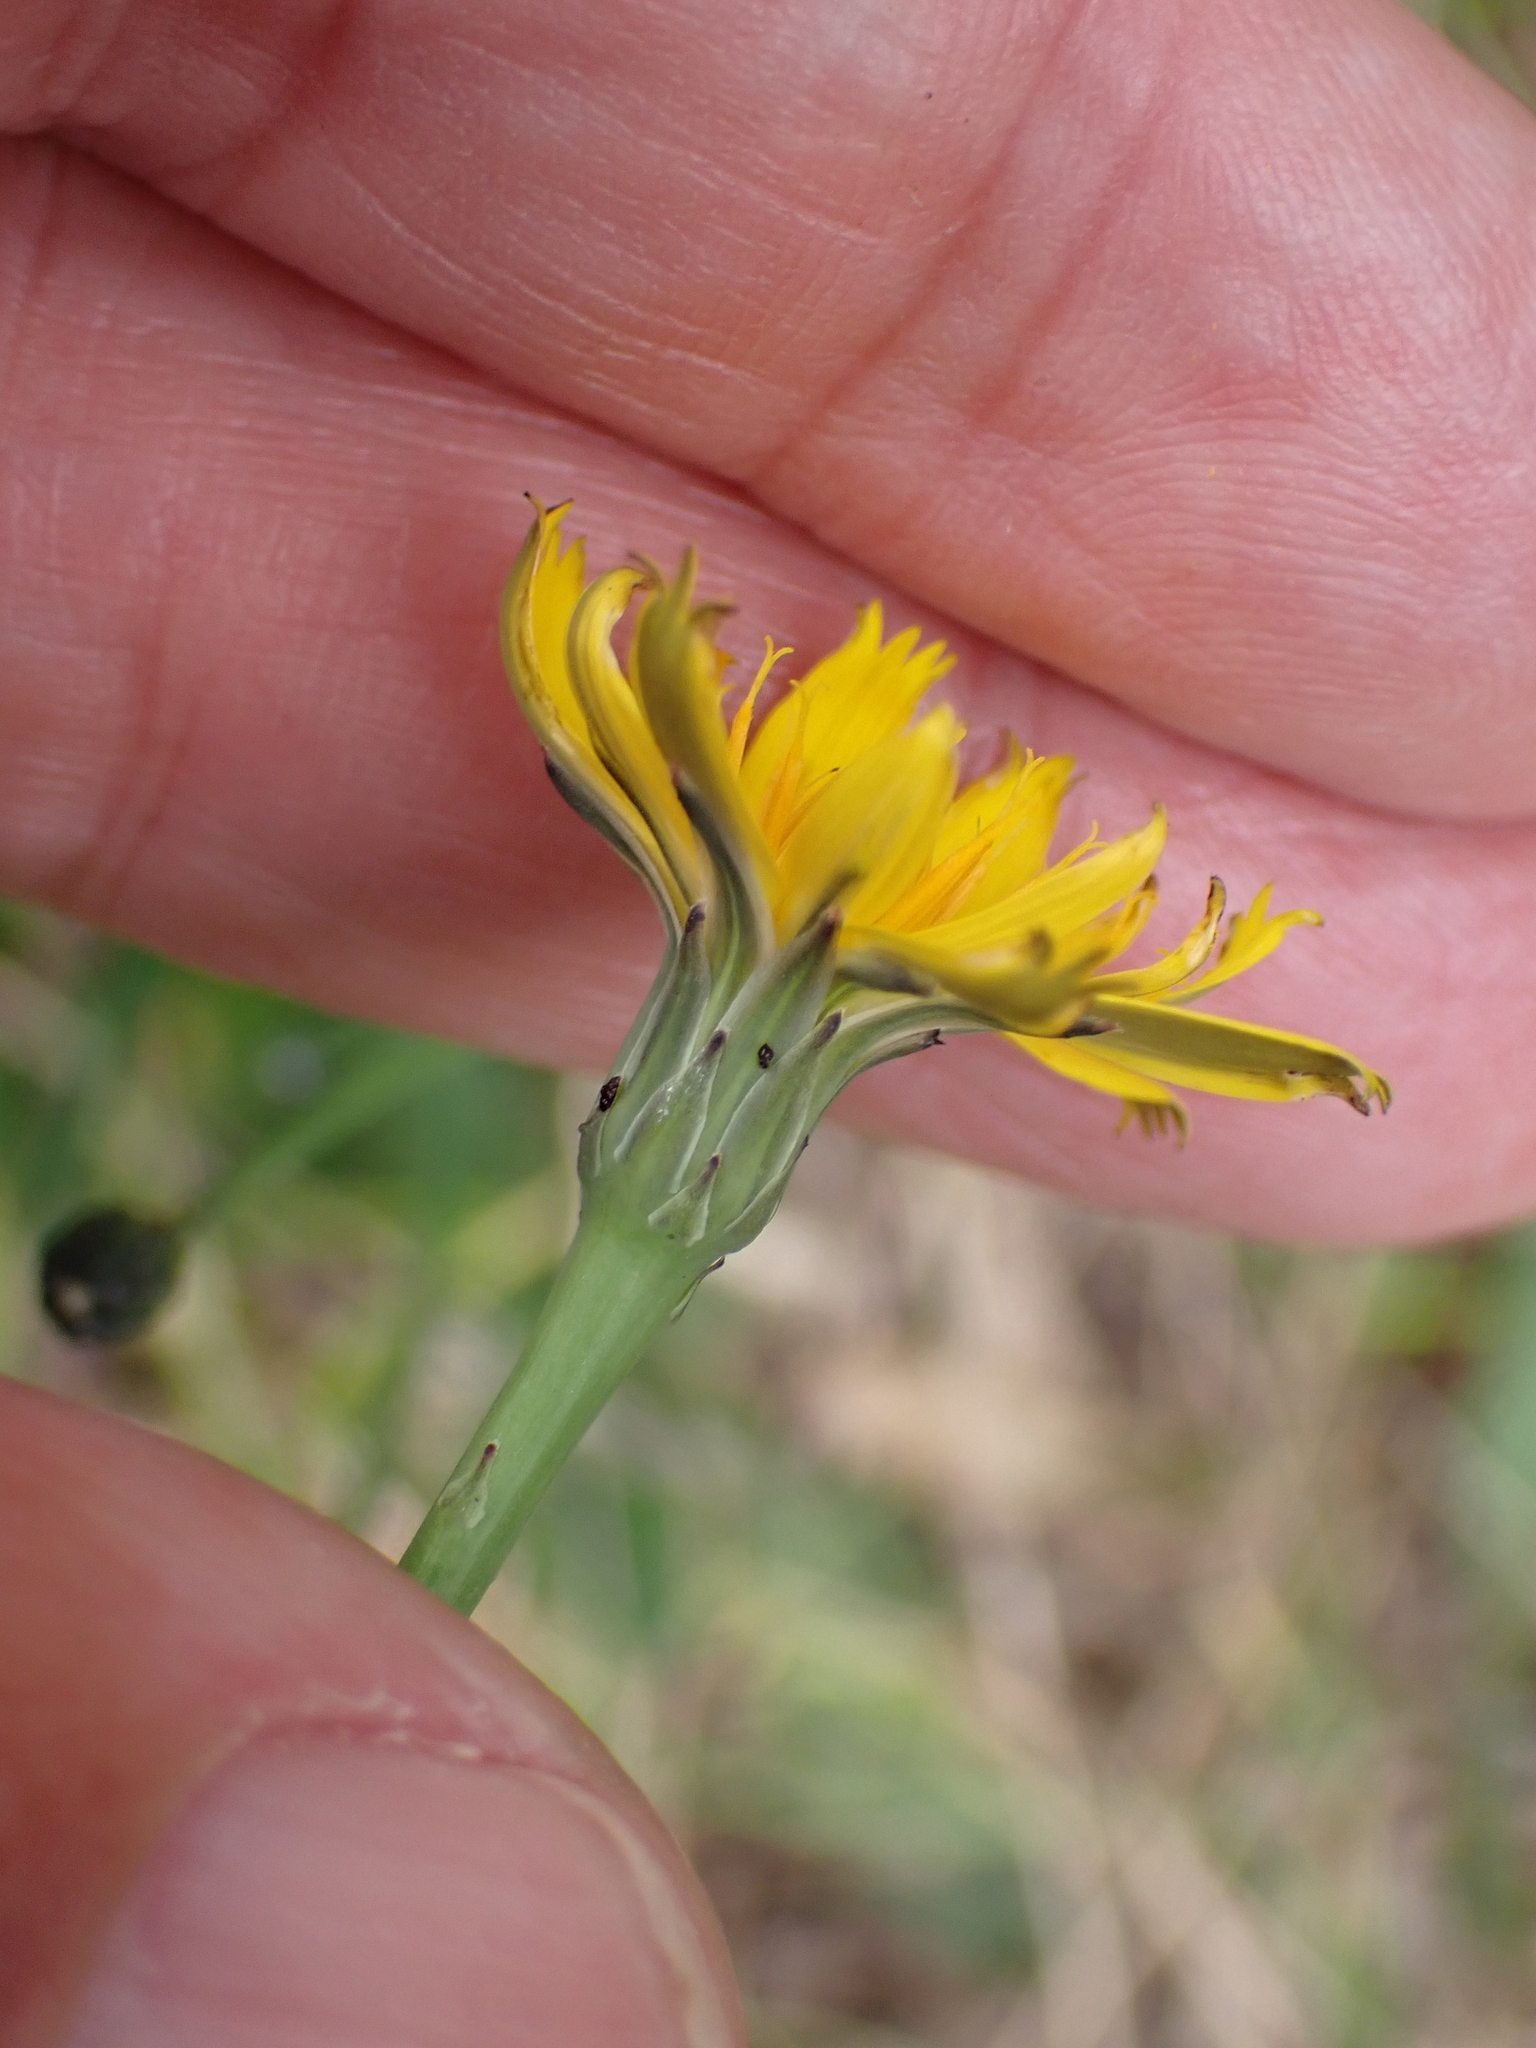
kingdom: Plantae
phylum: Tracheophyta
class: Magnoliopsida
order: Asterales
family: Asteraceae
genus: Hypochaeris
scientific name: Hypochaeris radicata
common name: Flatweed
